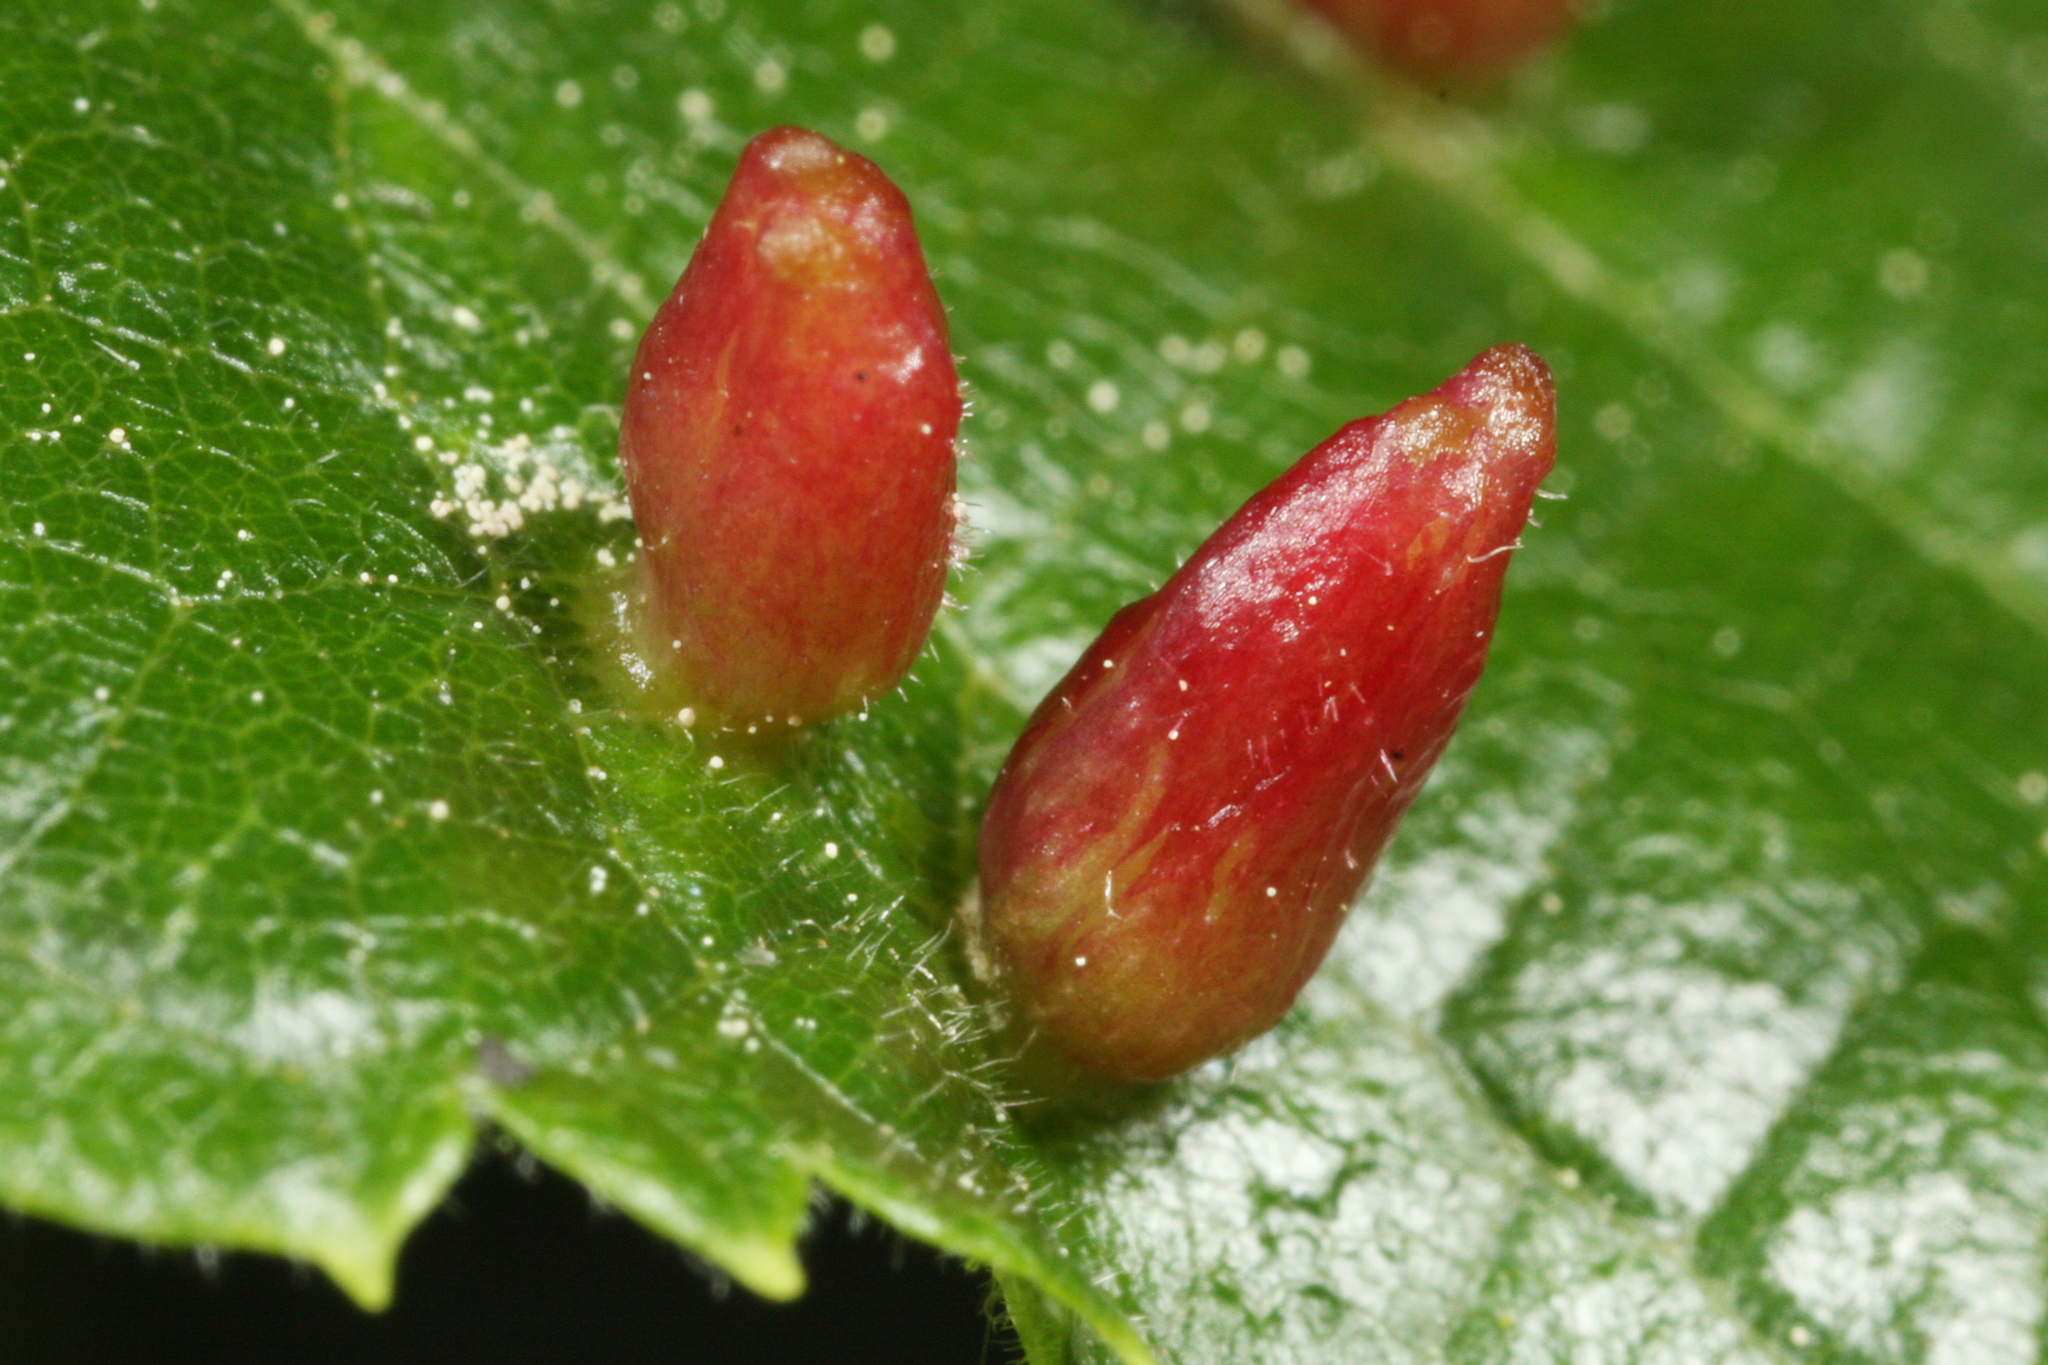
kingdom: Animalia
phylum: Arthropoda
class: Arachnida
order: Trombidiformes
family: Eriophyidae
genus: Eriophyes
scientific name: Eriophyes tiliae
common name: Red nail gall mite
